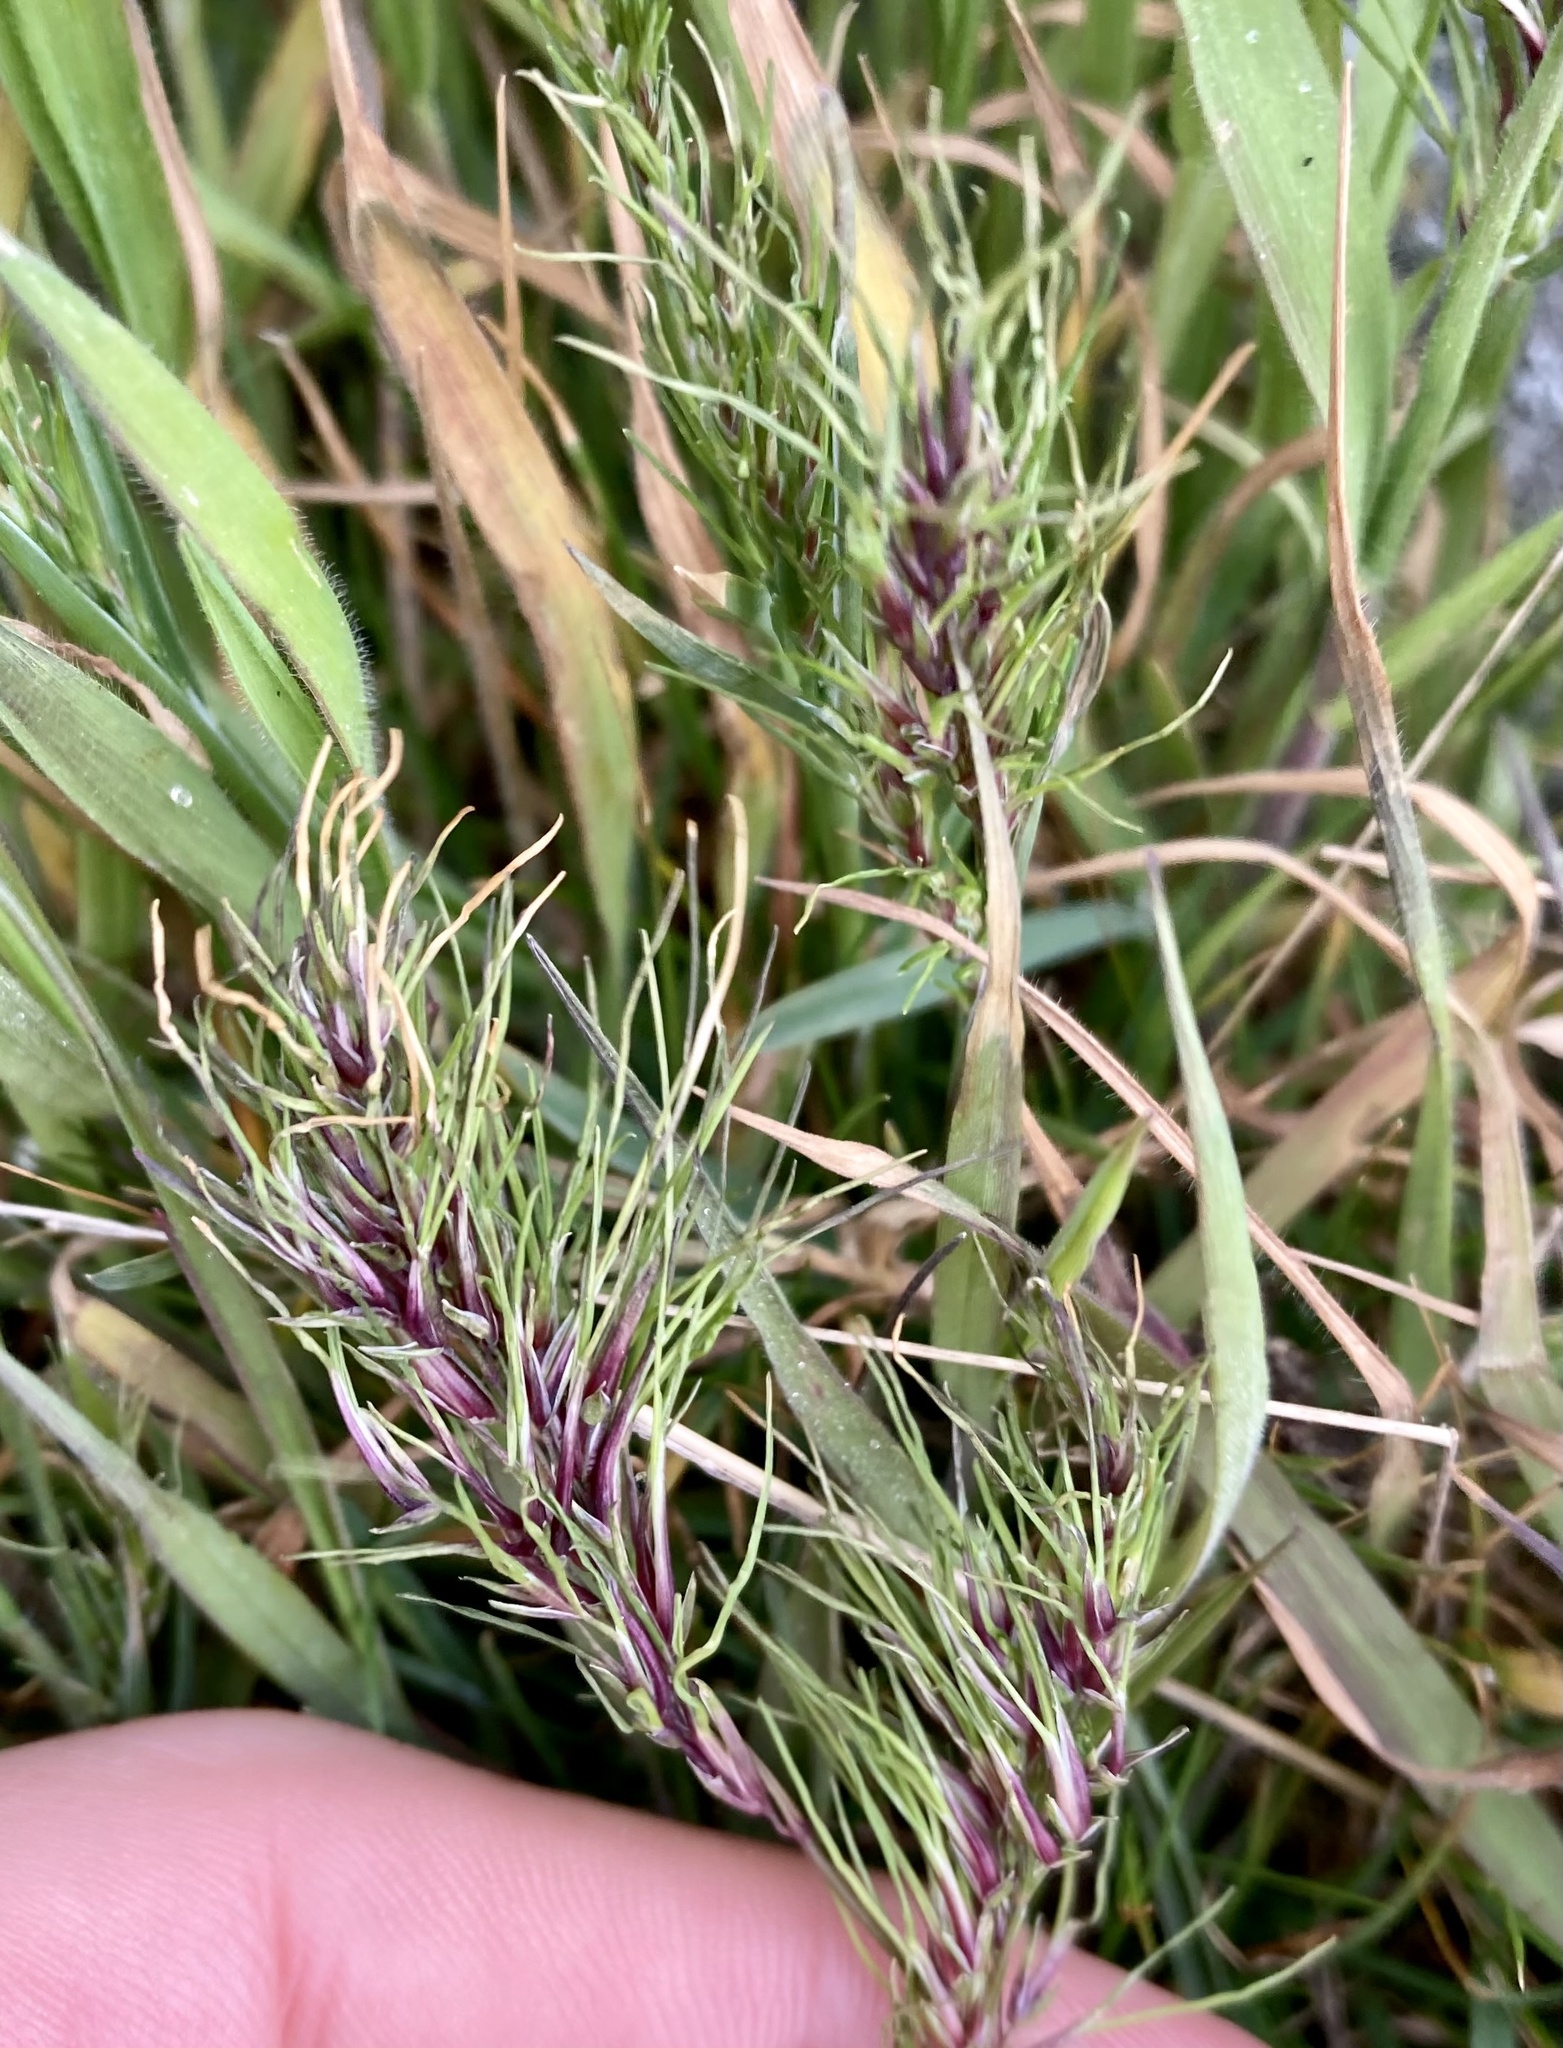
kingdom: Plantae
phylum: Tracheophyta
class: Liliopsida
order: Poales
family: Poaceae
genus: Poa
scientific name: Poa bulbosa
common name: Bulbous bluegrass
